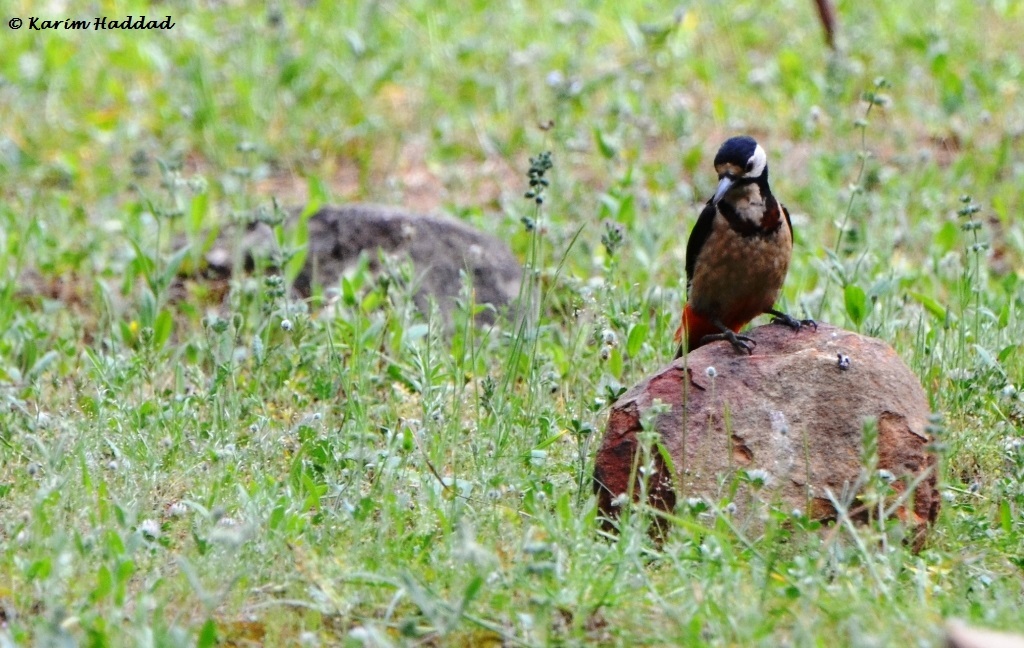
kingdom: Animalia
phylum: Chordata
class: Aves
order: Piciformes
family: Picidae
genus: Dendrocopos
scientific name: Dendrocopos major
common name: Great spotted woodpecker
